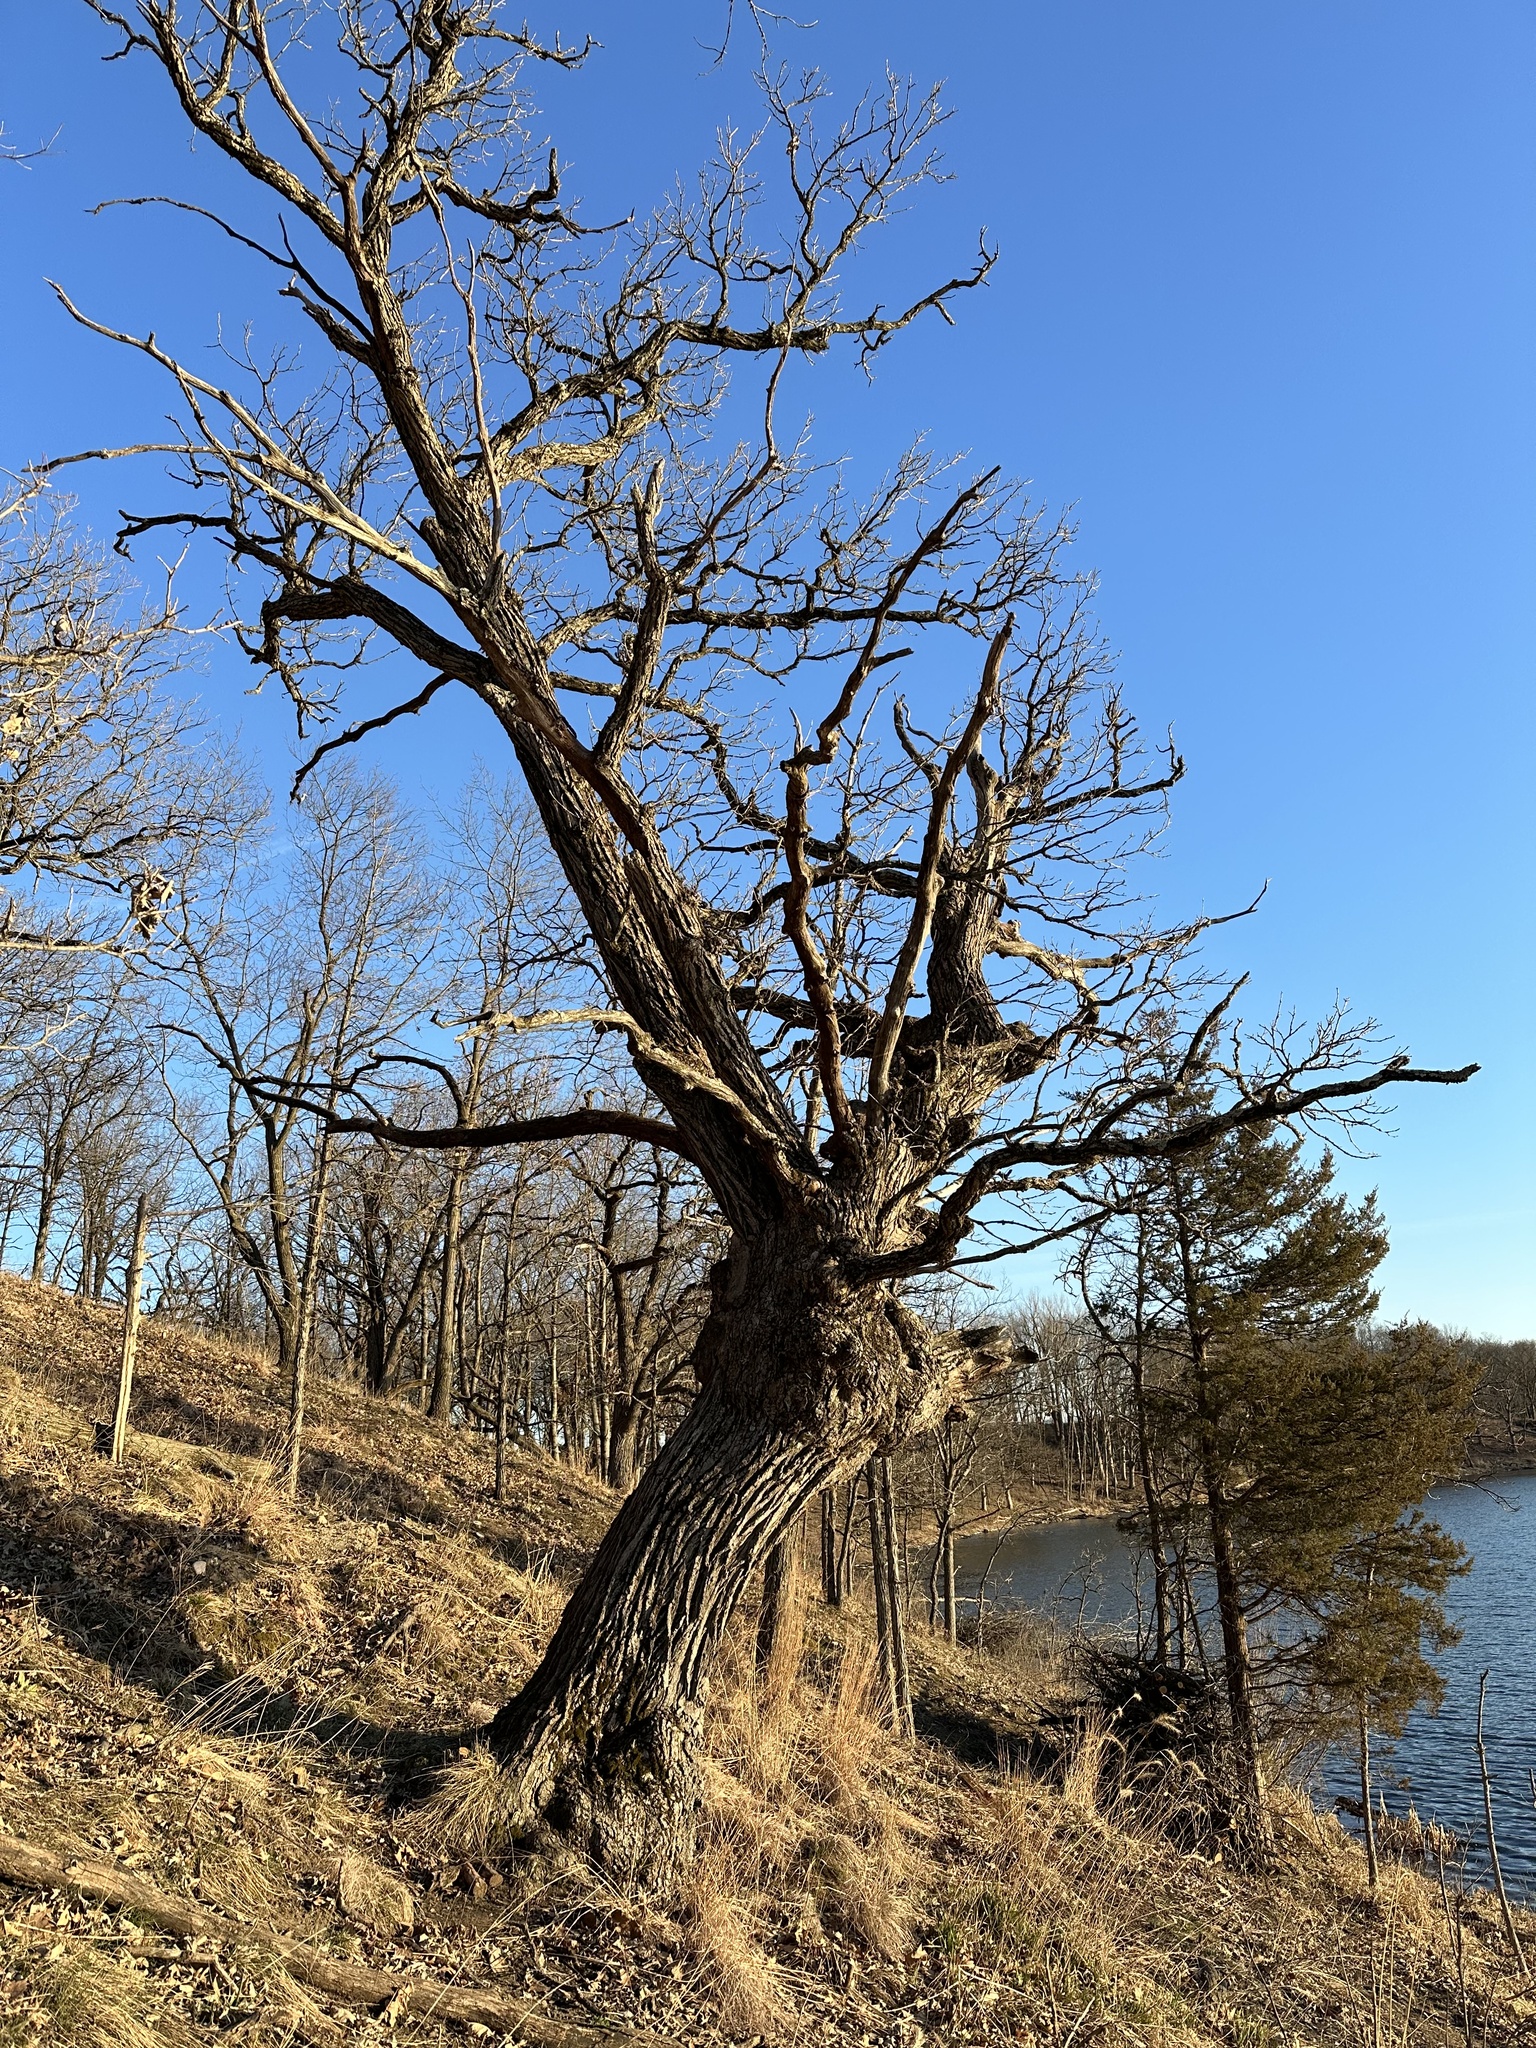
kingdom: Plantae
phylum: Tracheophyta
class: Magnoliopsida
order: Fagales
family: Fagaceae
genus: Quercus
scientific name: Quercus macrocarpa
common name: Bur oak
